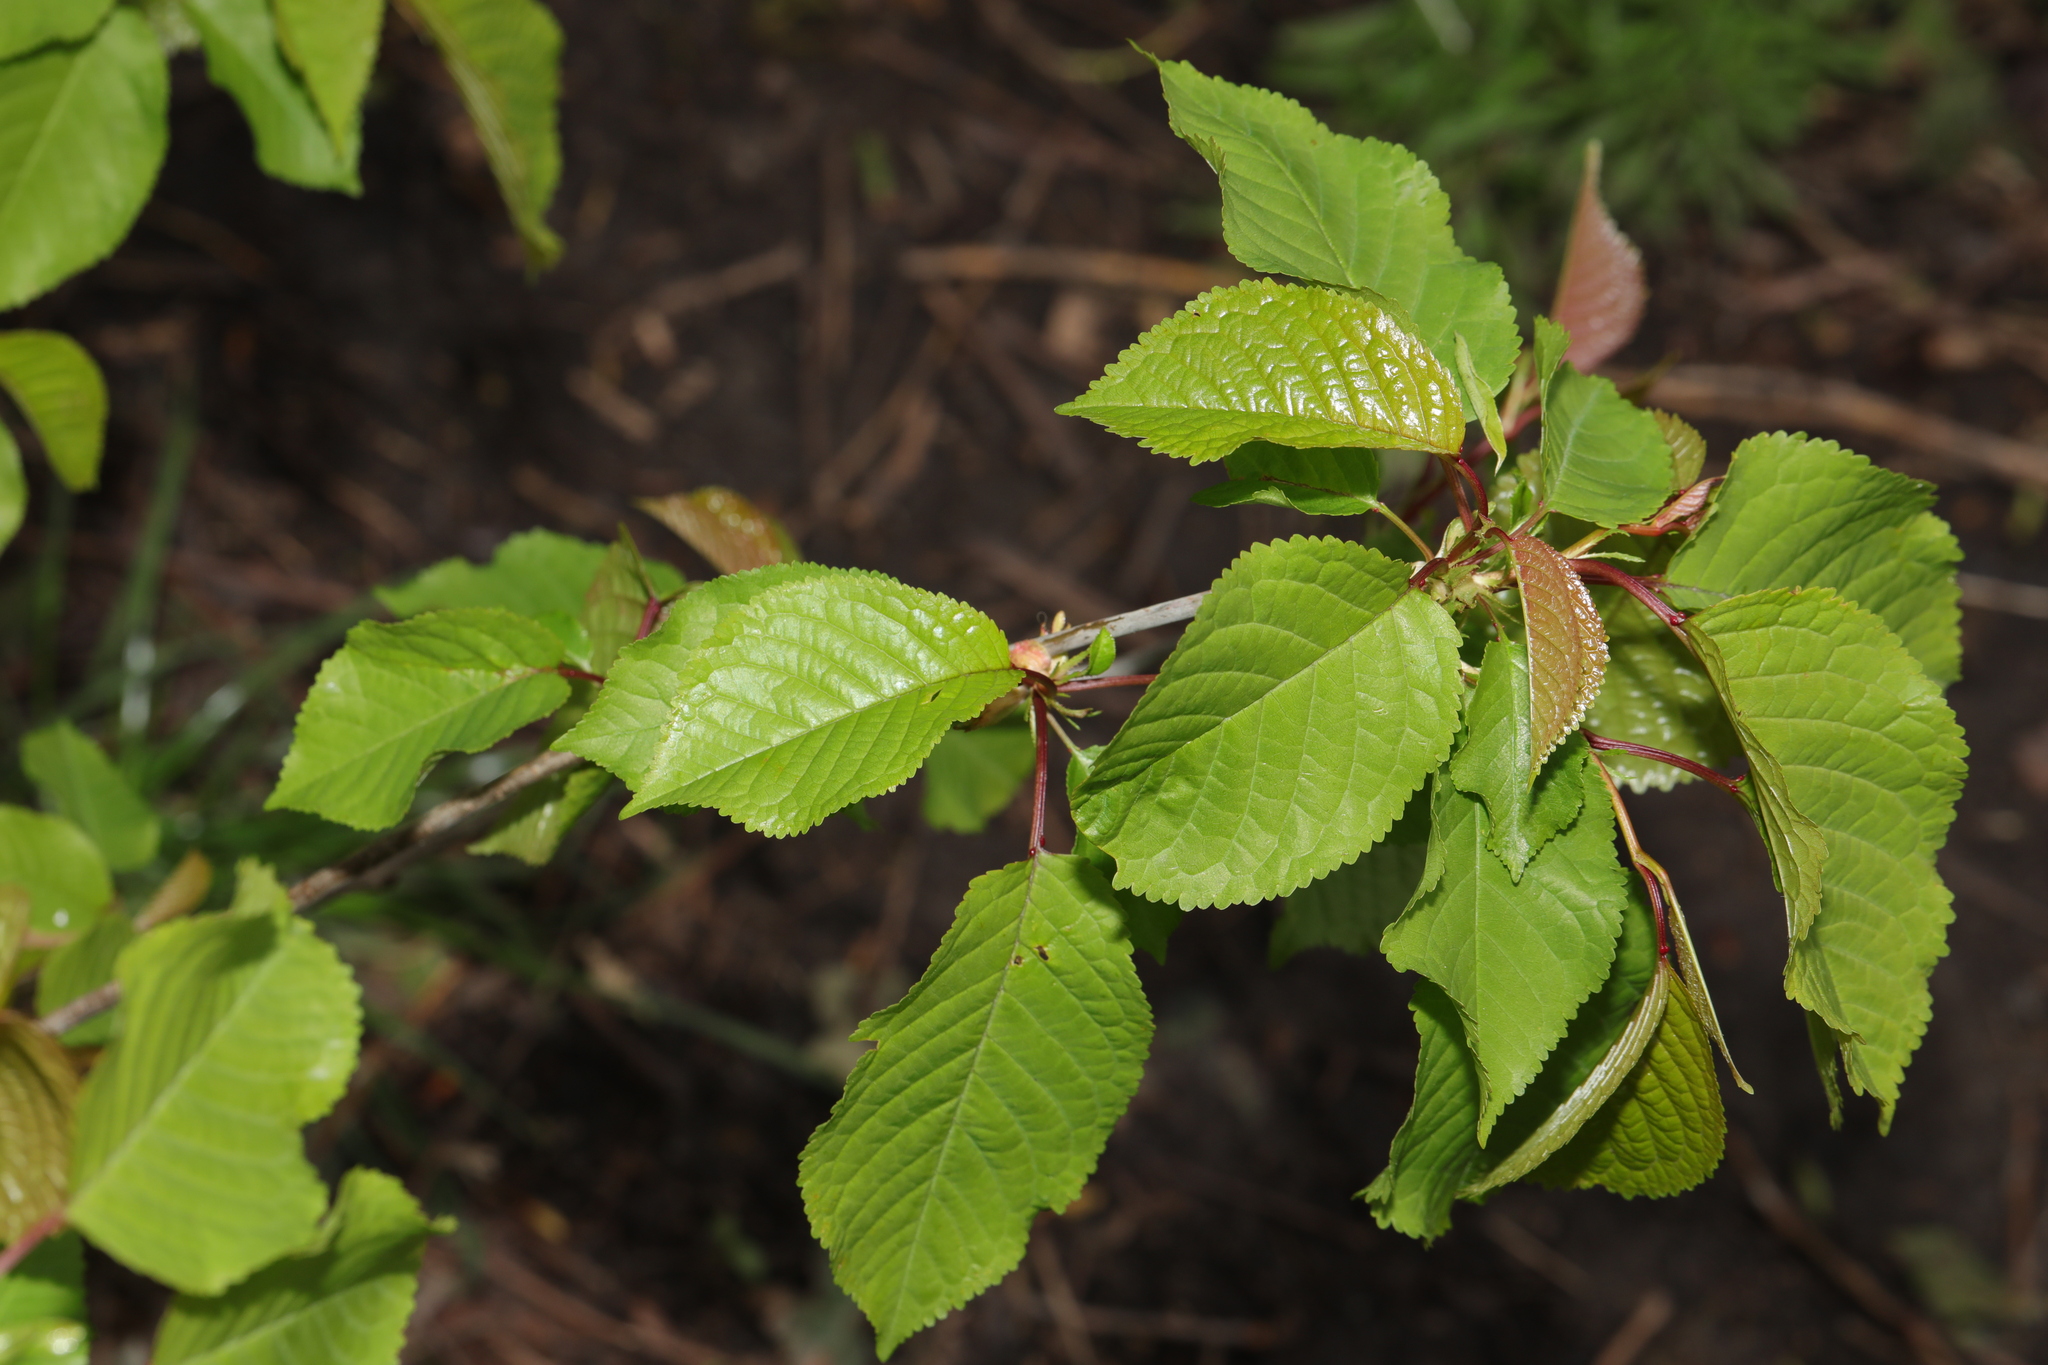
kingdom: Plantae
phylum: Tracheophyta
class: Magnoliopsida
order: Rosales
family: Rosaceae
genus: Prunus
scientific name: Prunus avium
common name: Sweet cherry
